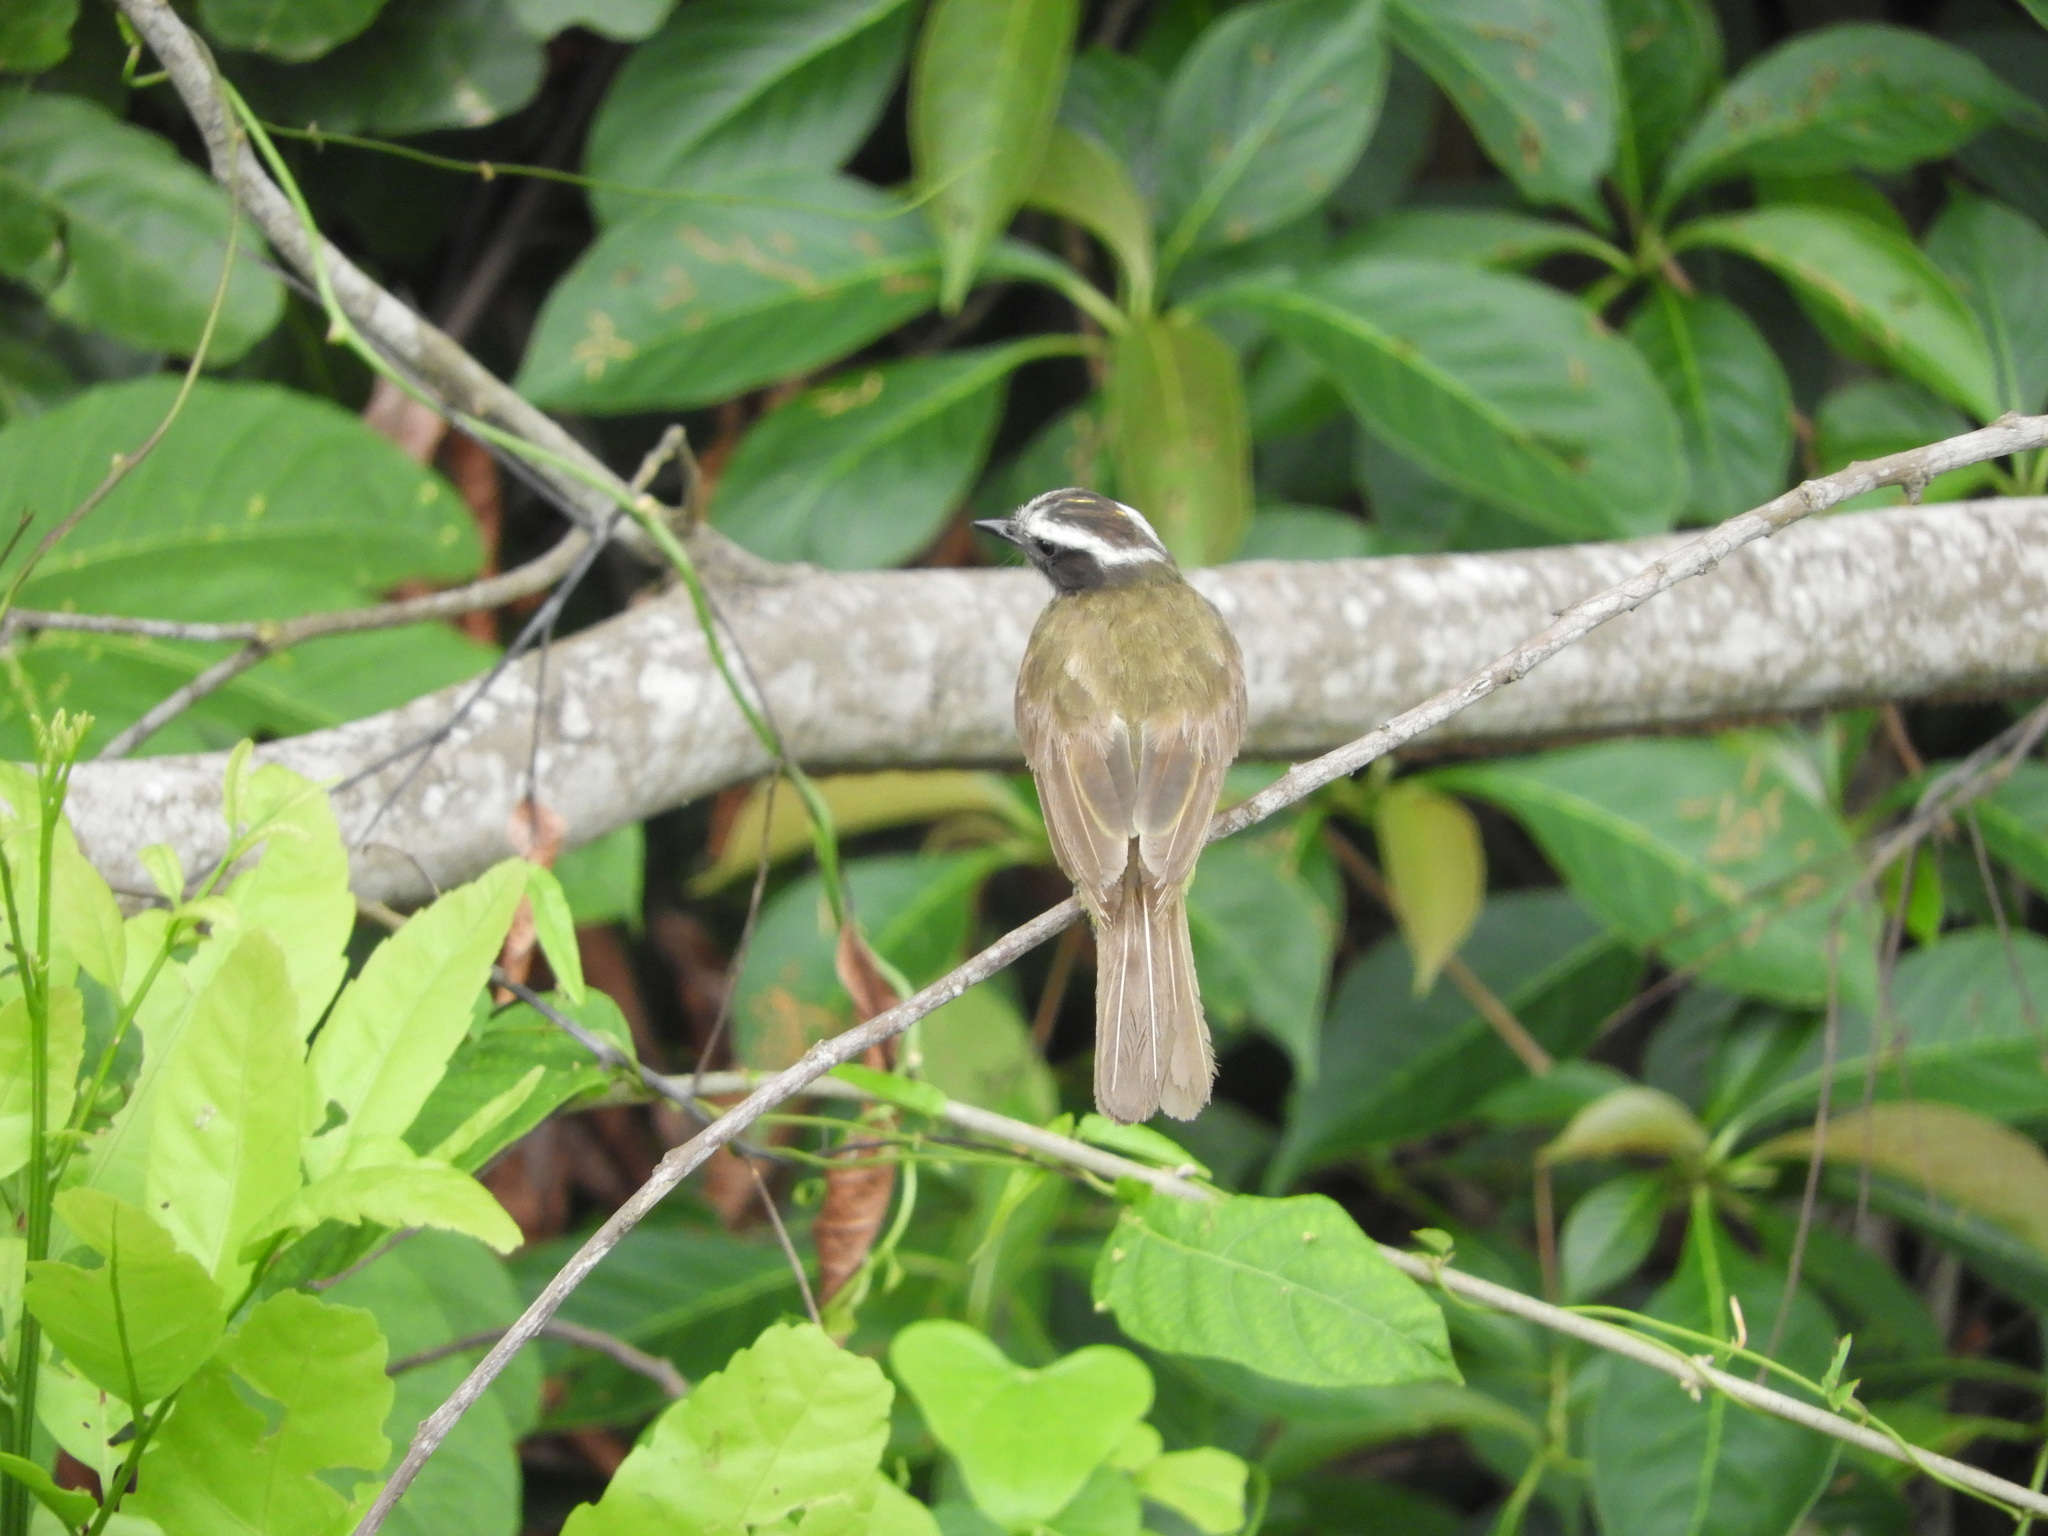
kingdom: Animalia
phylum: Chordata
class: Aves
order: Passeriformes
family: Tyrannidae
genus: Myiozetetes
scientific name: Myiozetetes cayanensis
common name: Rusty-margined flycatcher
